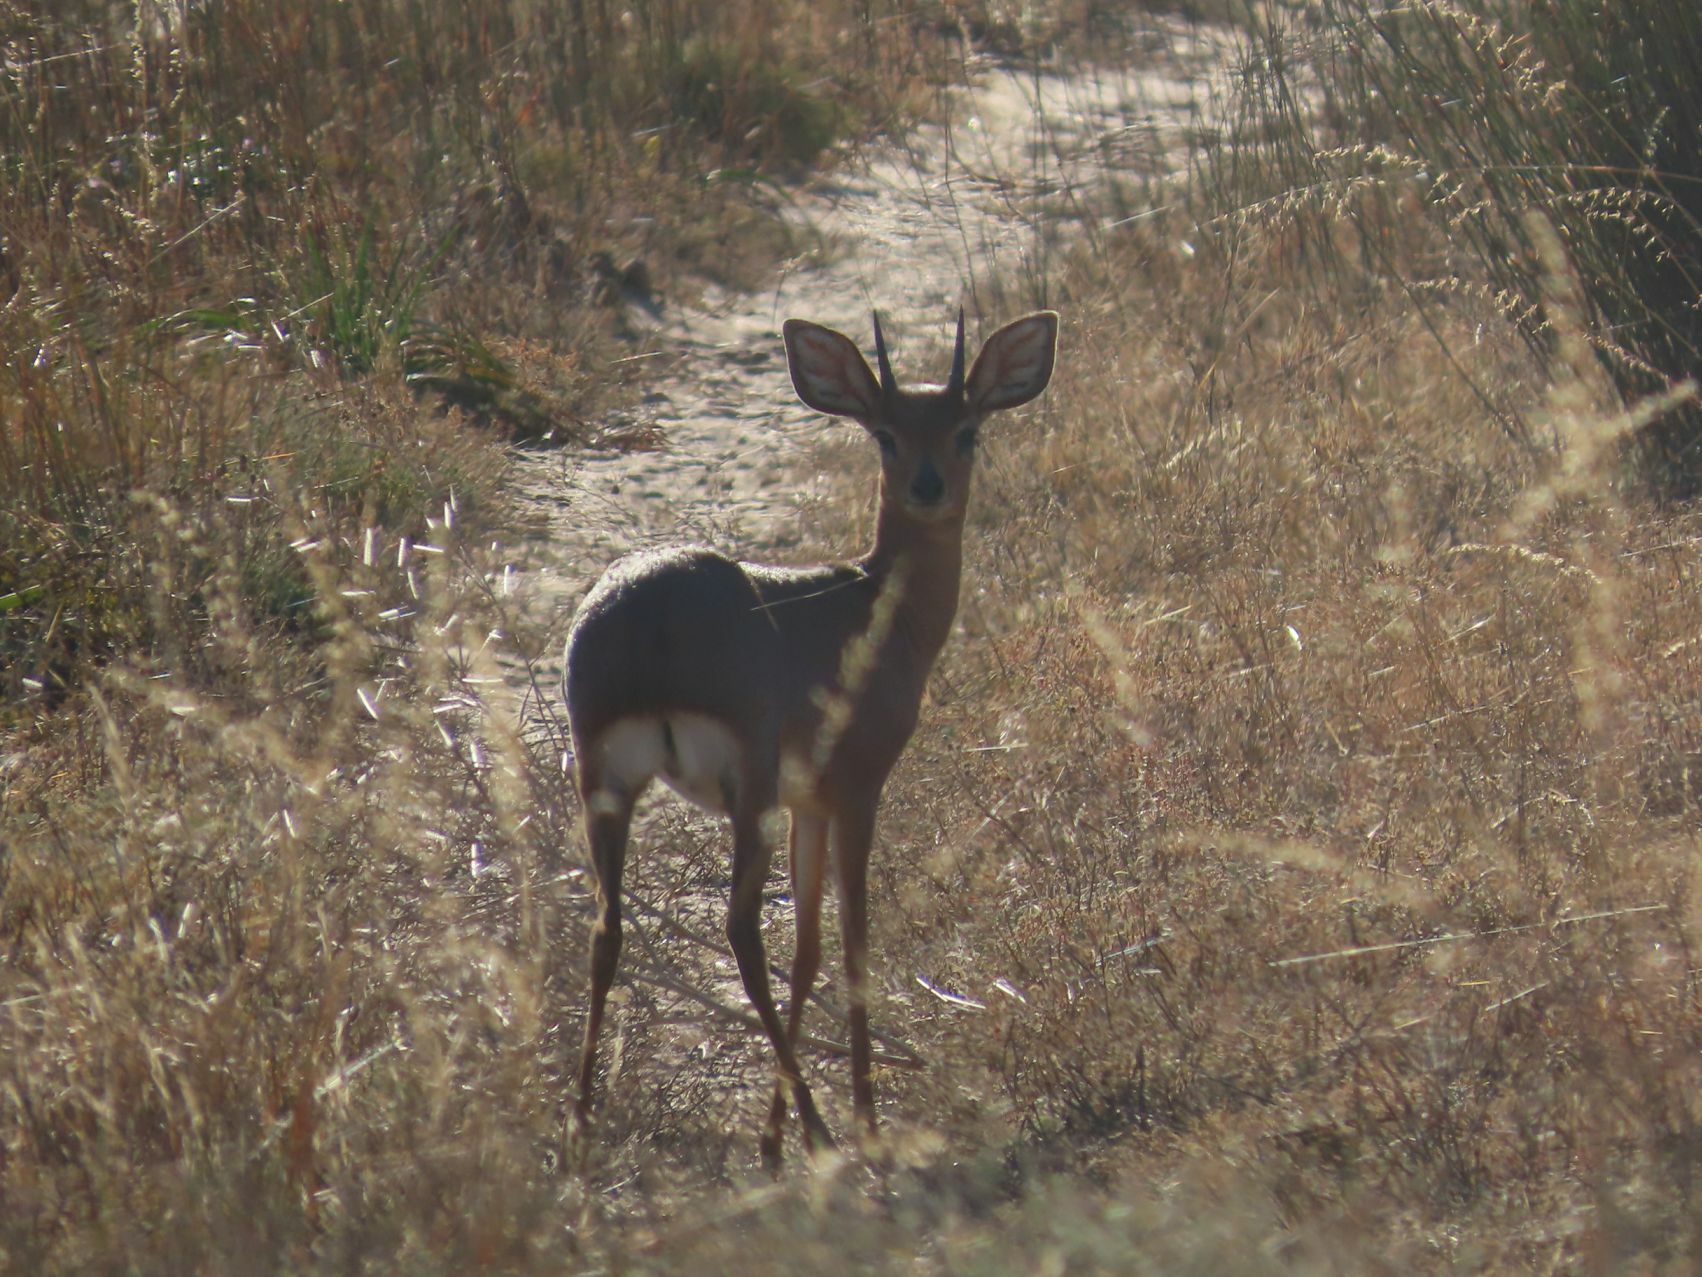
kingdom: Animalia
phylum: Chordata
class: Mammalia
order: Artiodactyla
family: Bovidae
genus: Raphicerus
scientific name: Raphicerus campestris
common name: Steenbok
